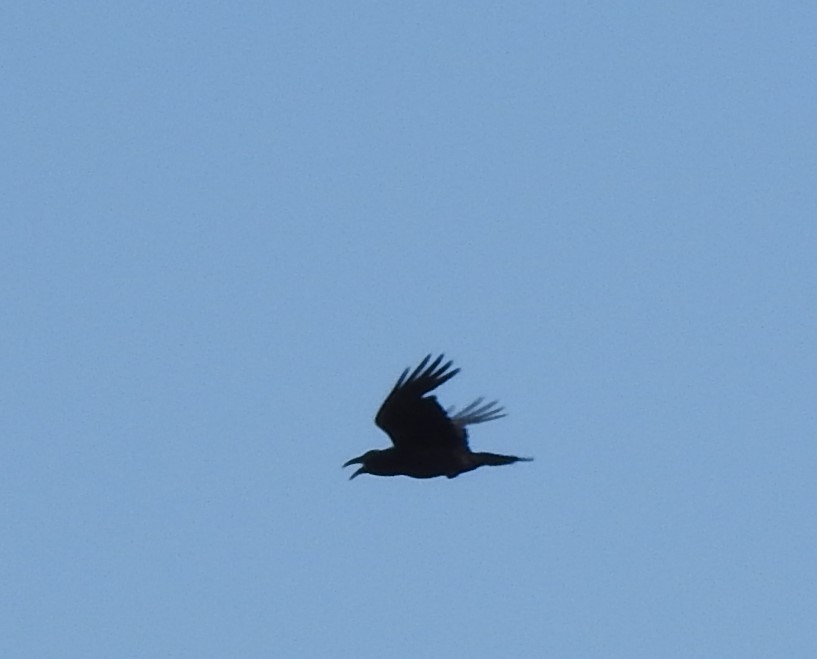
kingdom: Animalia
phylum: Chordata
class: Aves
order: Passeriformes
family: Corvidae
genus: Corvus
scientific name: Corvus corax
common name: Common raven
